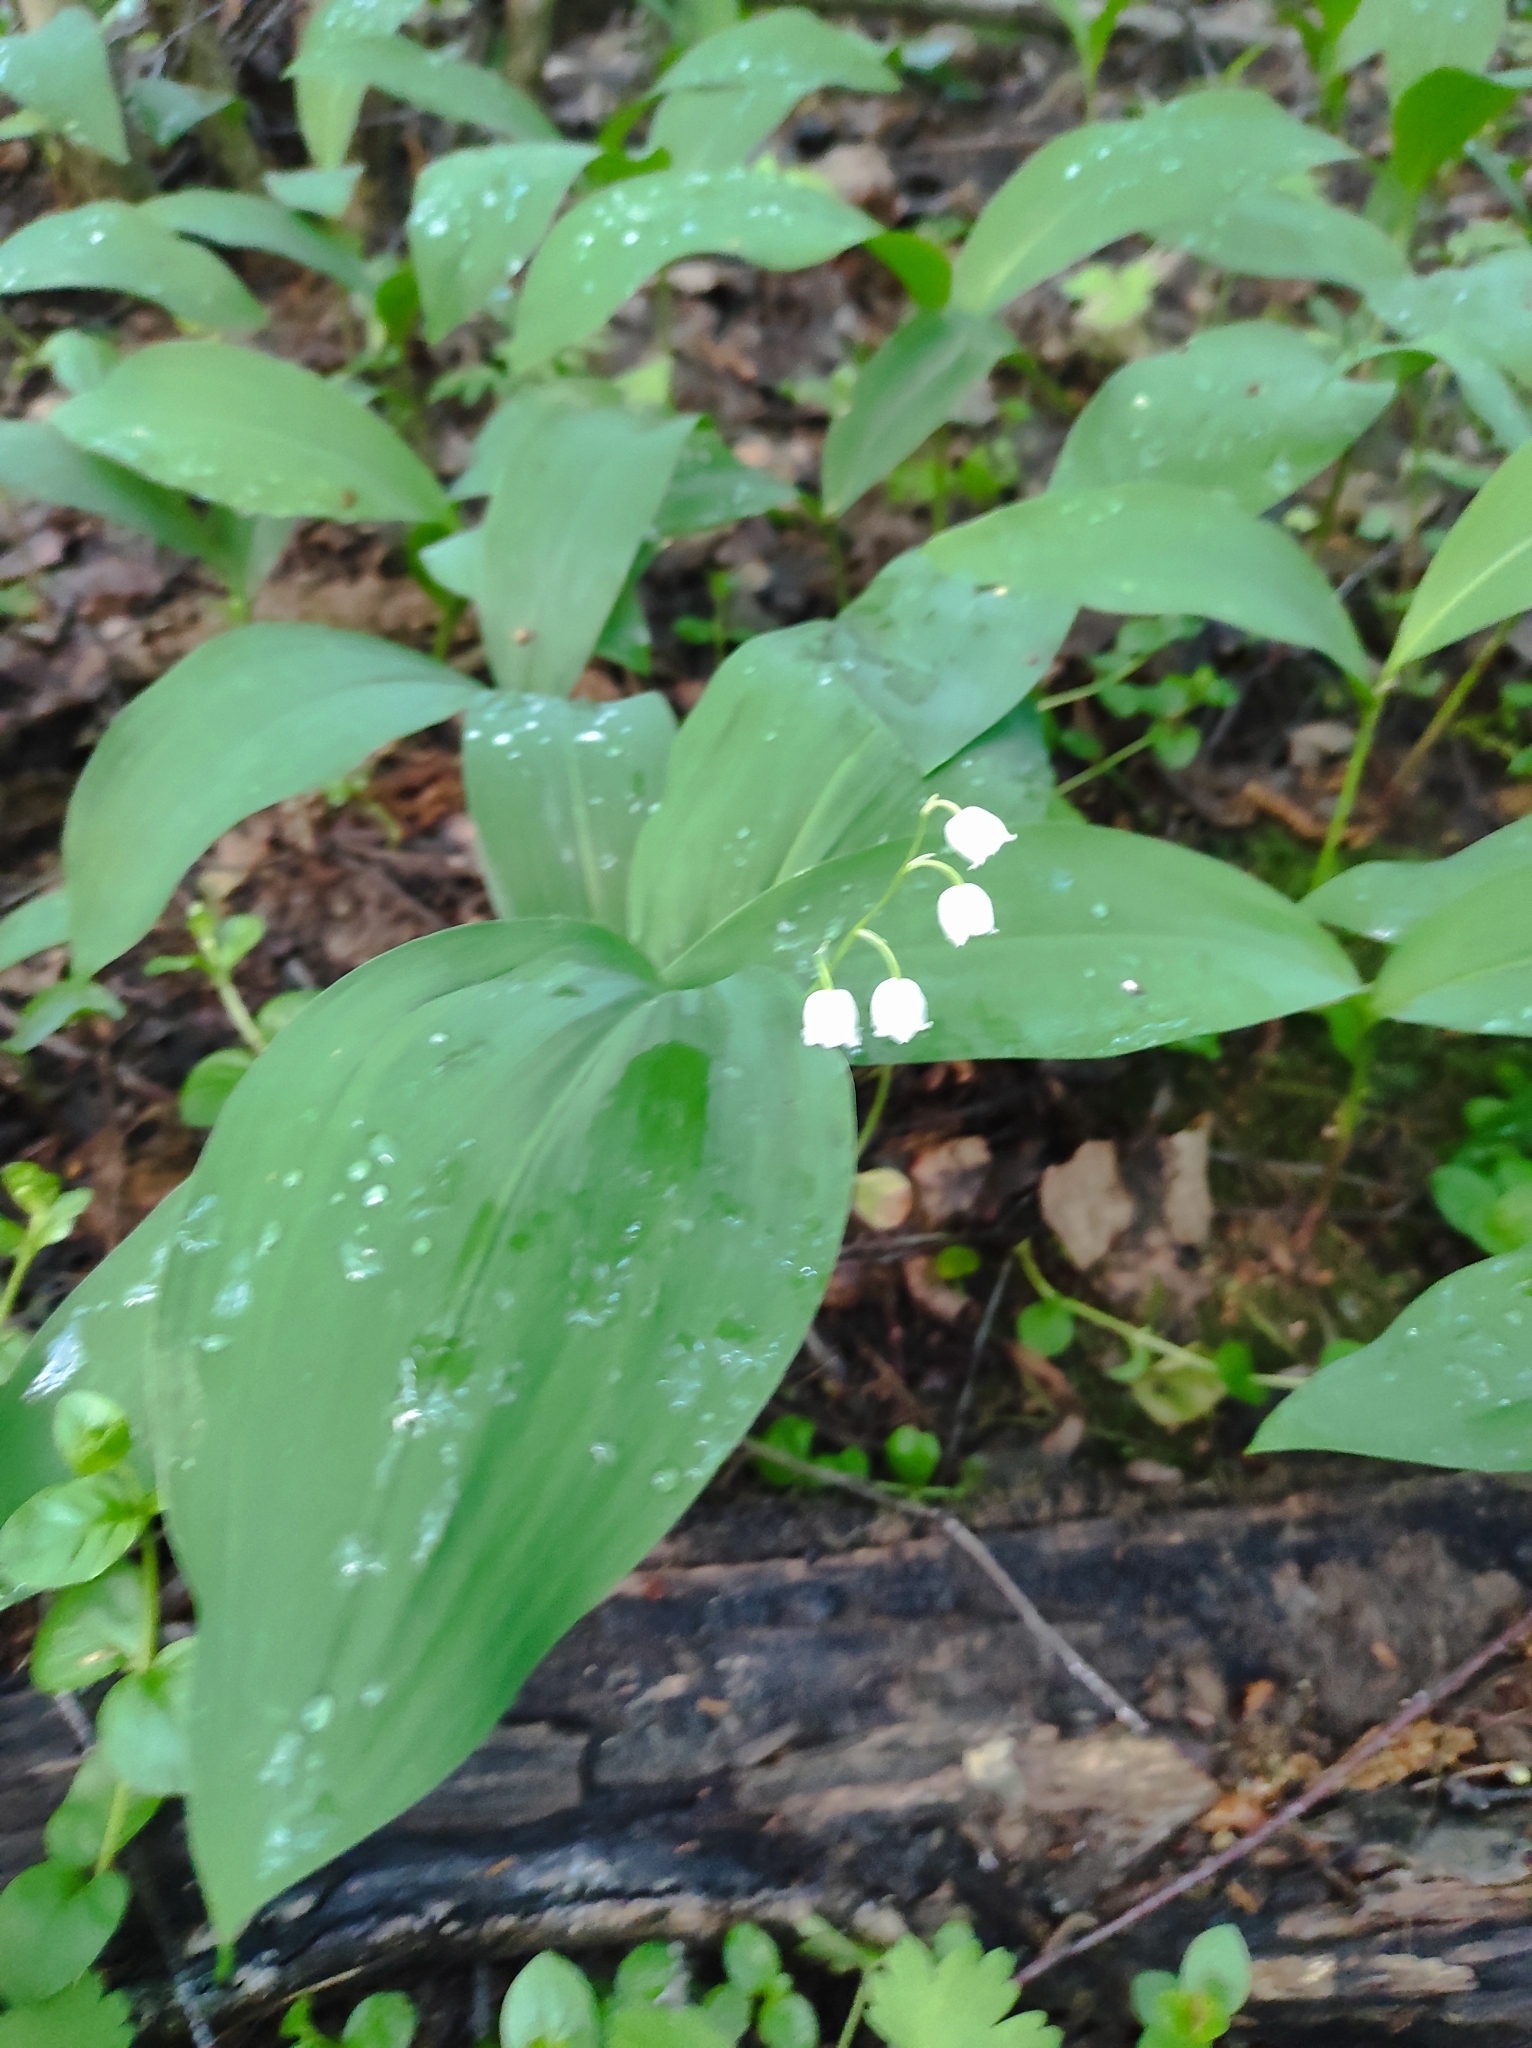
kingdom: Plantae
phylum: Tracheophyta
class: Liliopsida
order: Asparagales
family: Asparagaceae
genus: Convallaria
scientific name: Convallaria majalis
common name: Lily-of-the-valley
